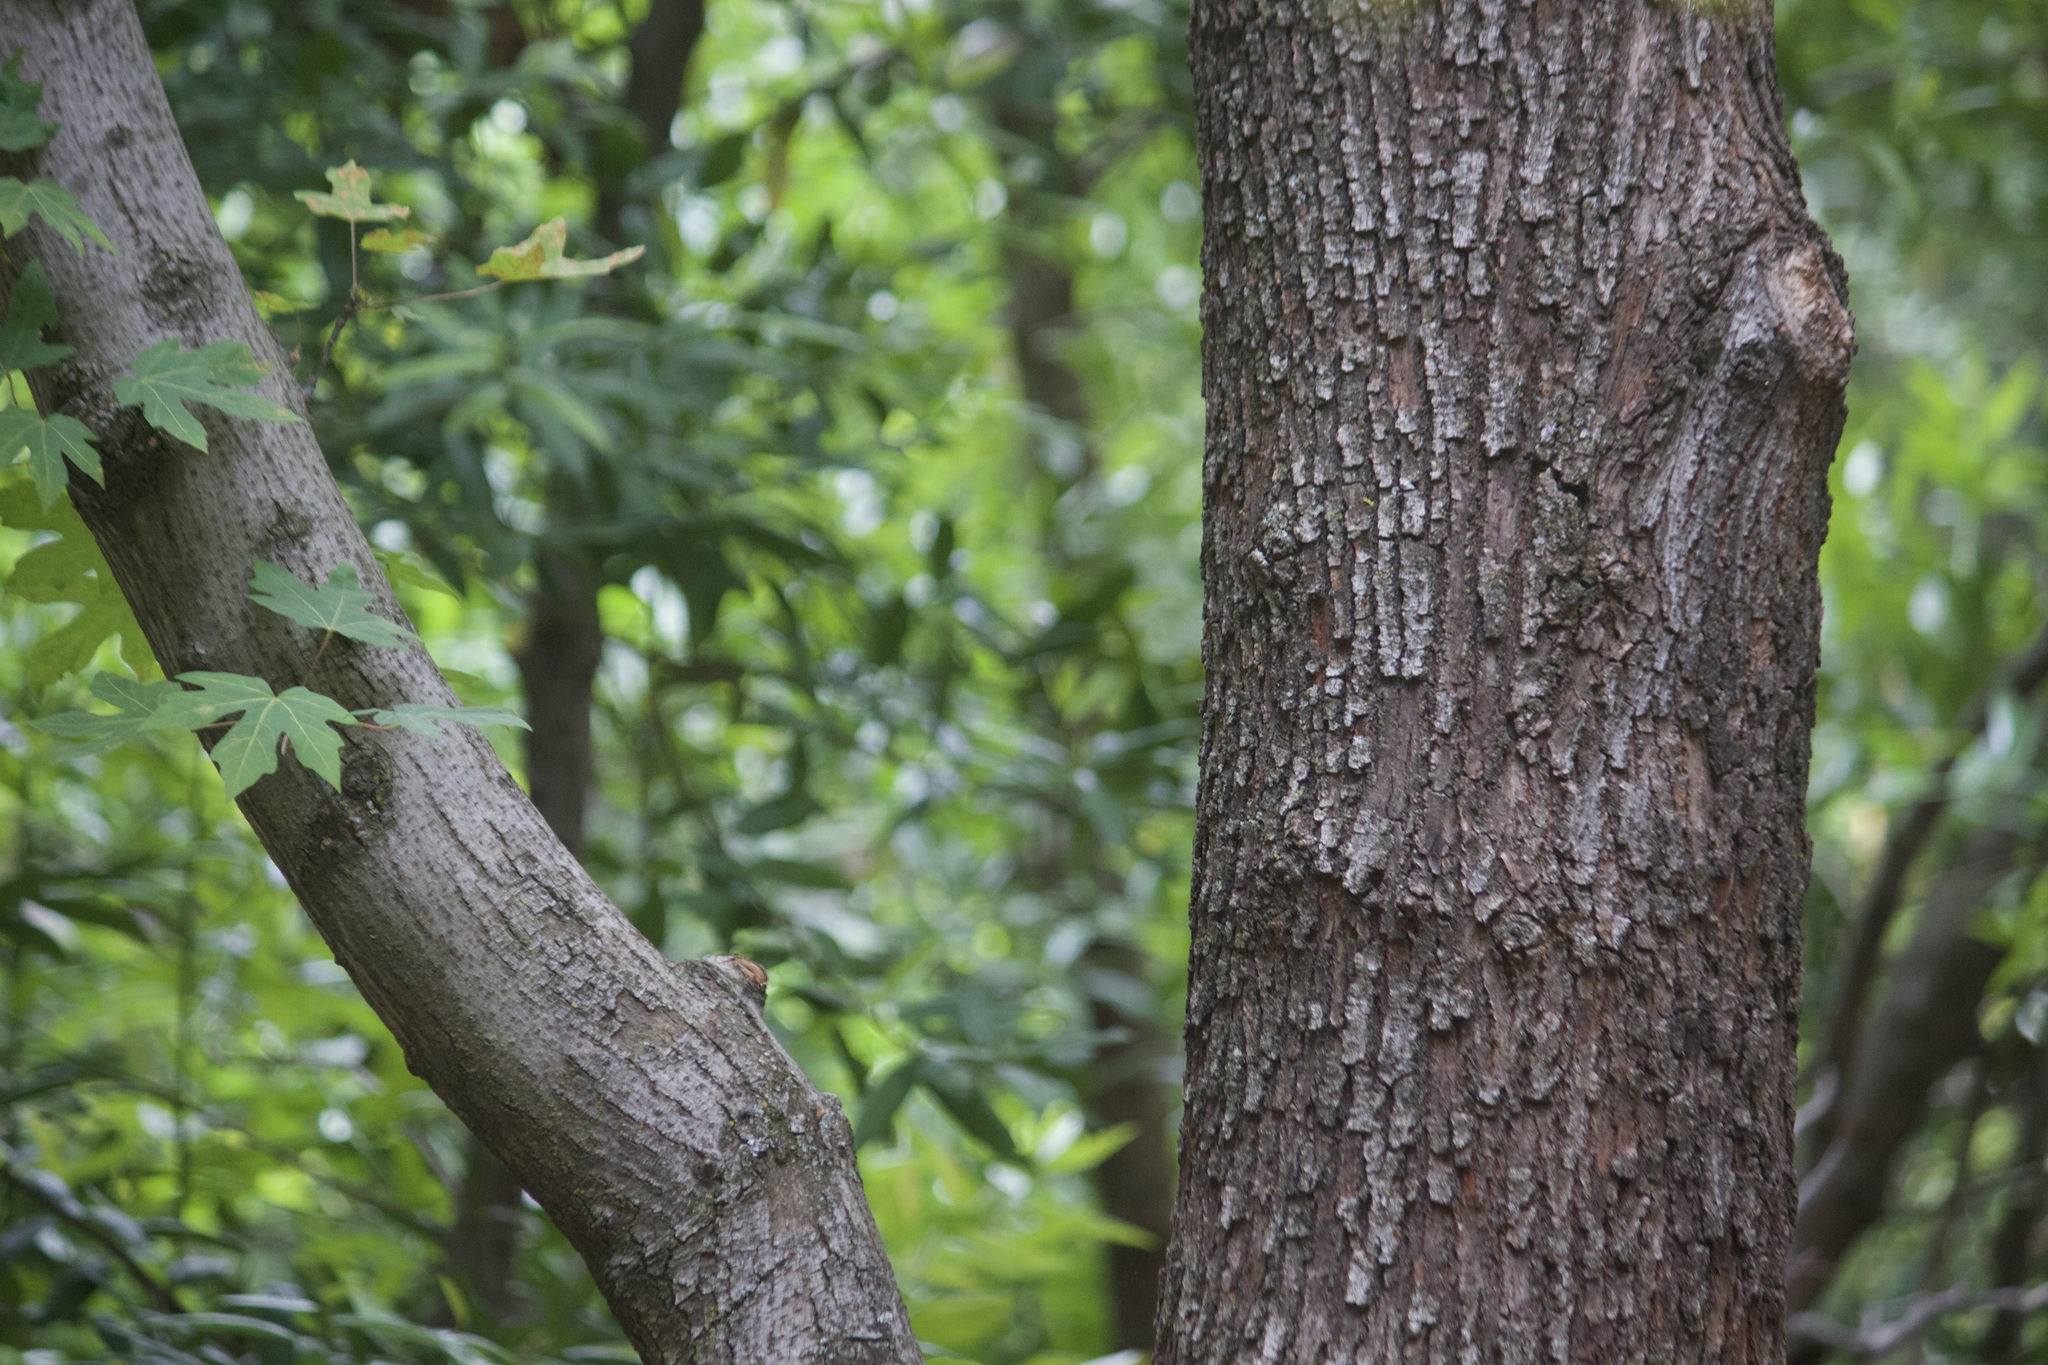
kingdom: Plantae
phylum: Tracheophyta
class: Magnoliopsida
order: Sapindales
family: Sapindaceae
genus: Acer
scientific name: Acer macrophyllum
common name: Oregon maple
